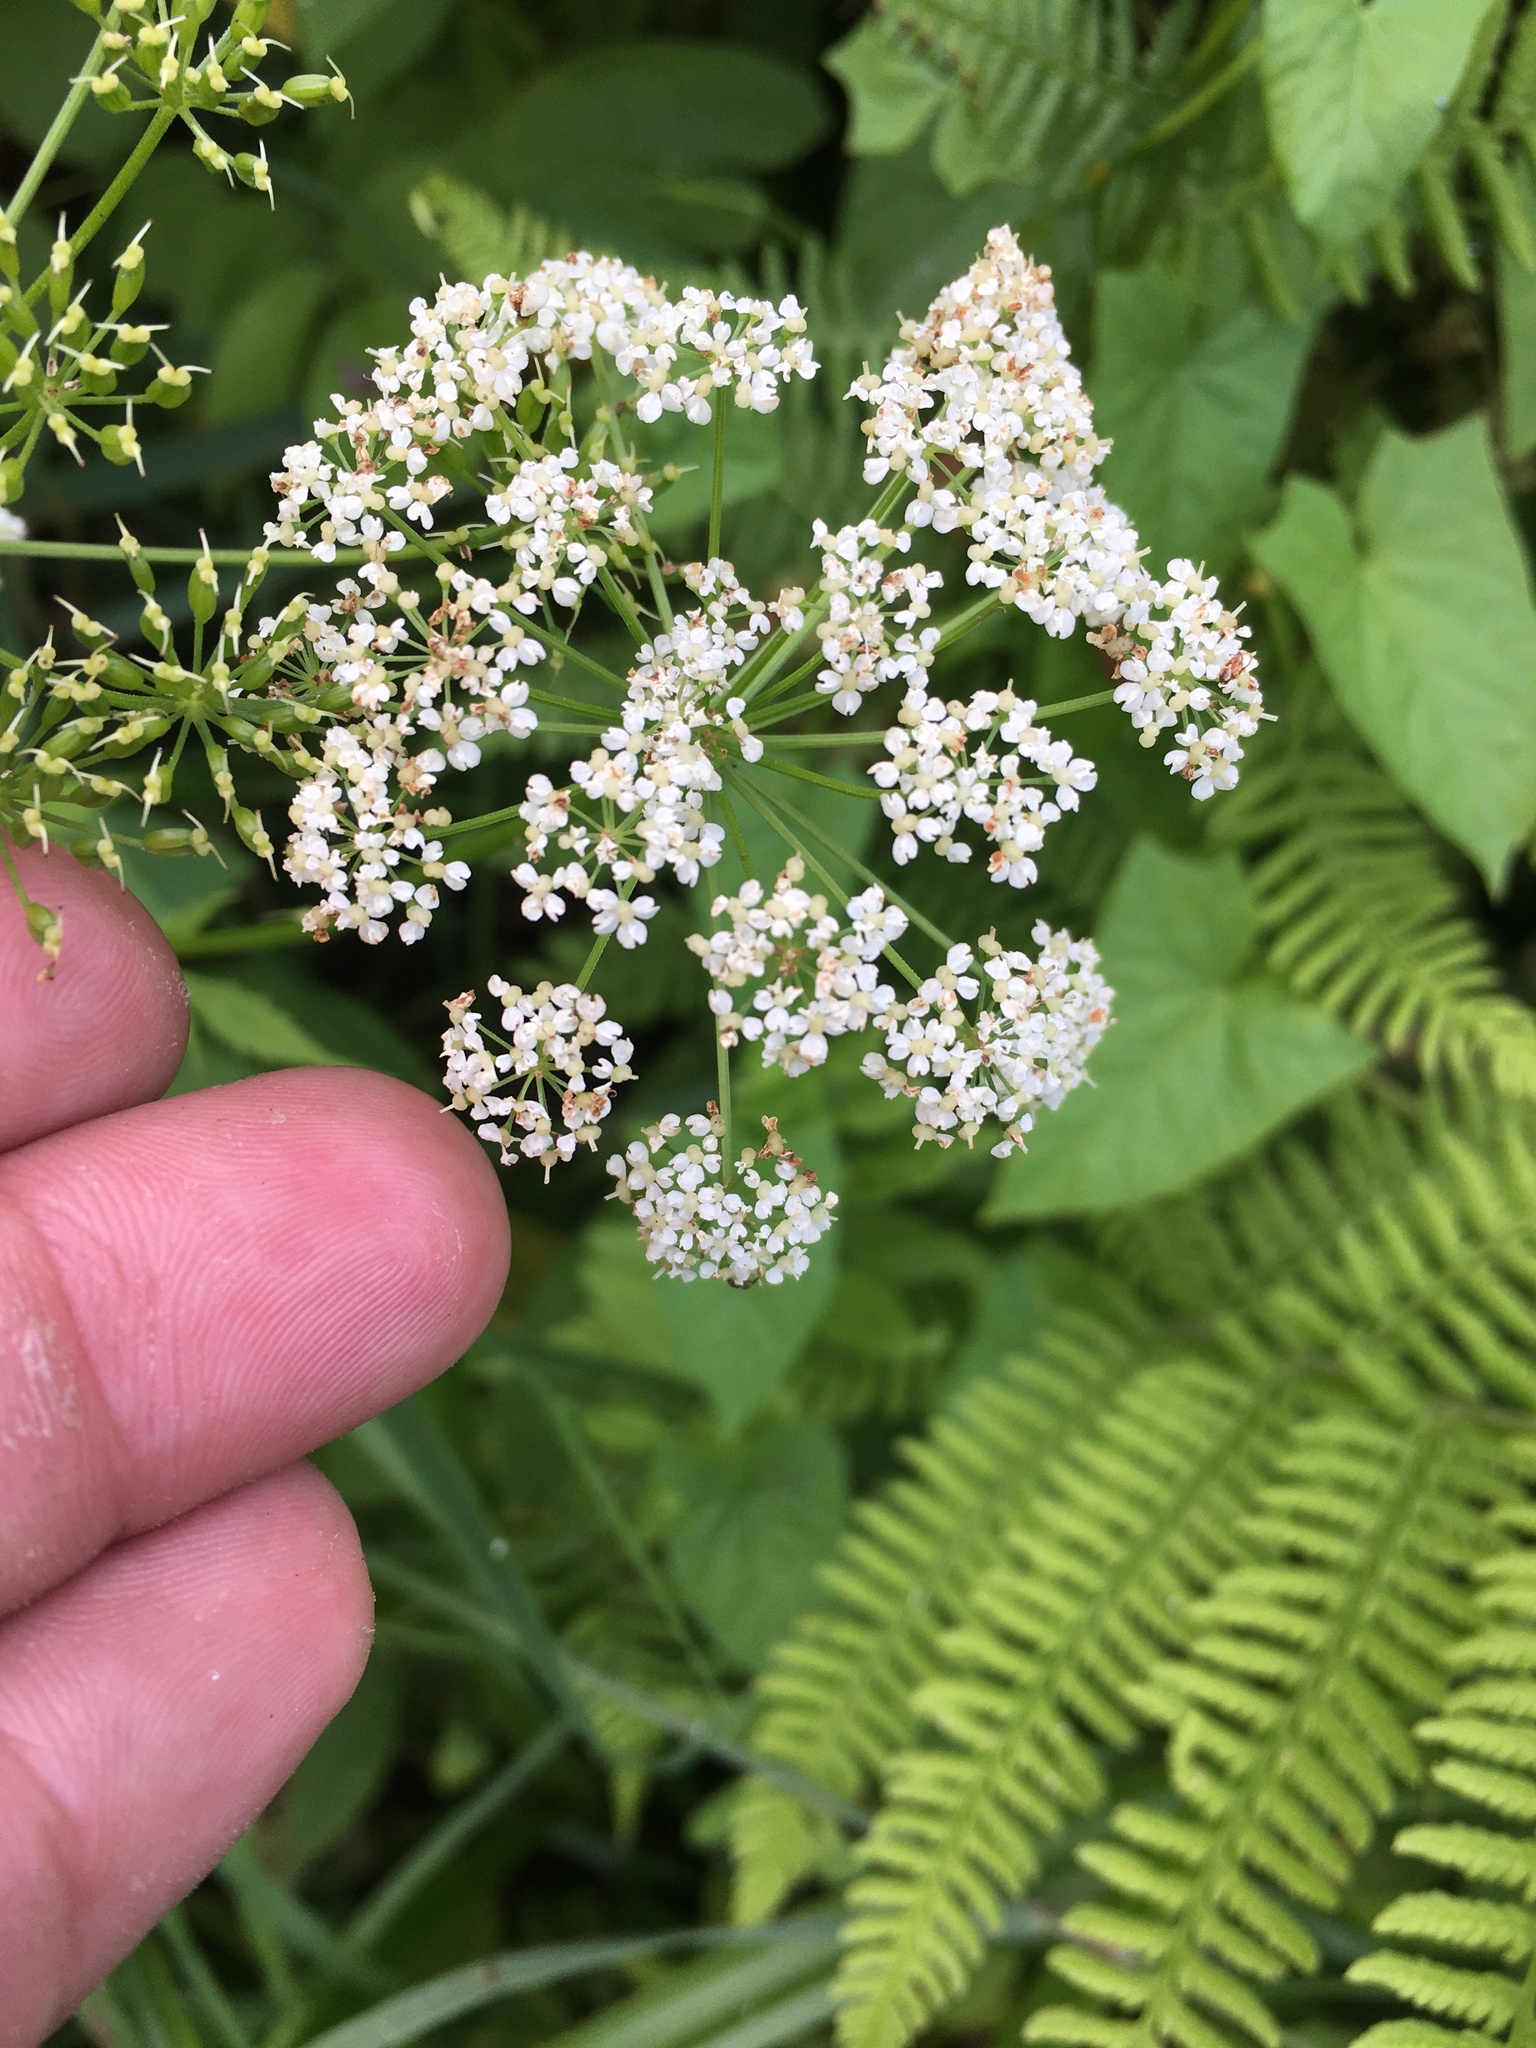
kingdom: Plantae
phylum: Tracheophyta
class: Magnoliopsida
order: Apiales
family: Apiaceae
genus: Aegopodium
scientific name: Aegopodium podagraria
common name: Ground-elder
